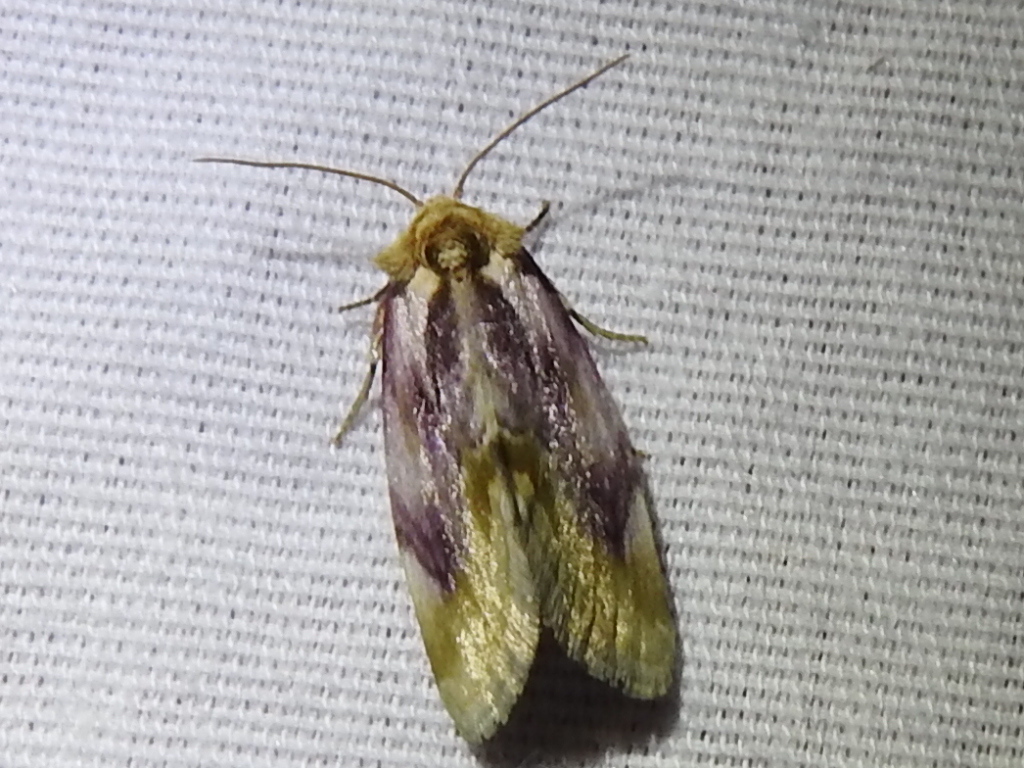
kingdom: Animalia
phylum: Arthropoda
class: Insecta
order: Lepidoptera
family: Noctuidae
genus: Chamaeclea
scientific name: Chamaeclea pernana
